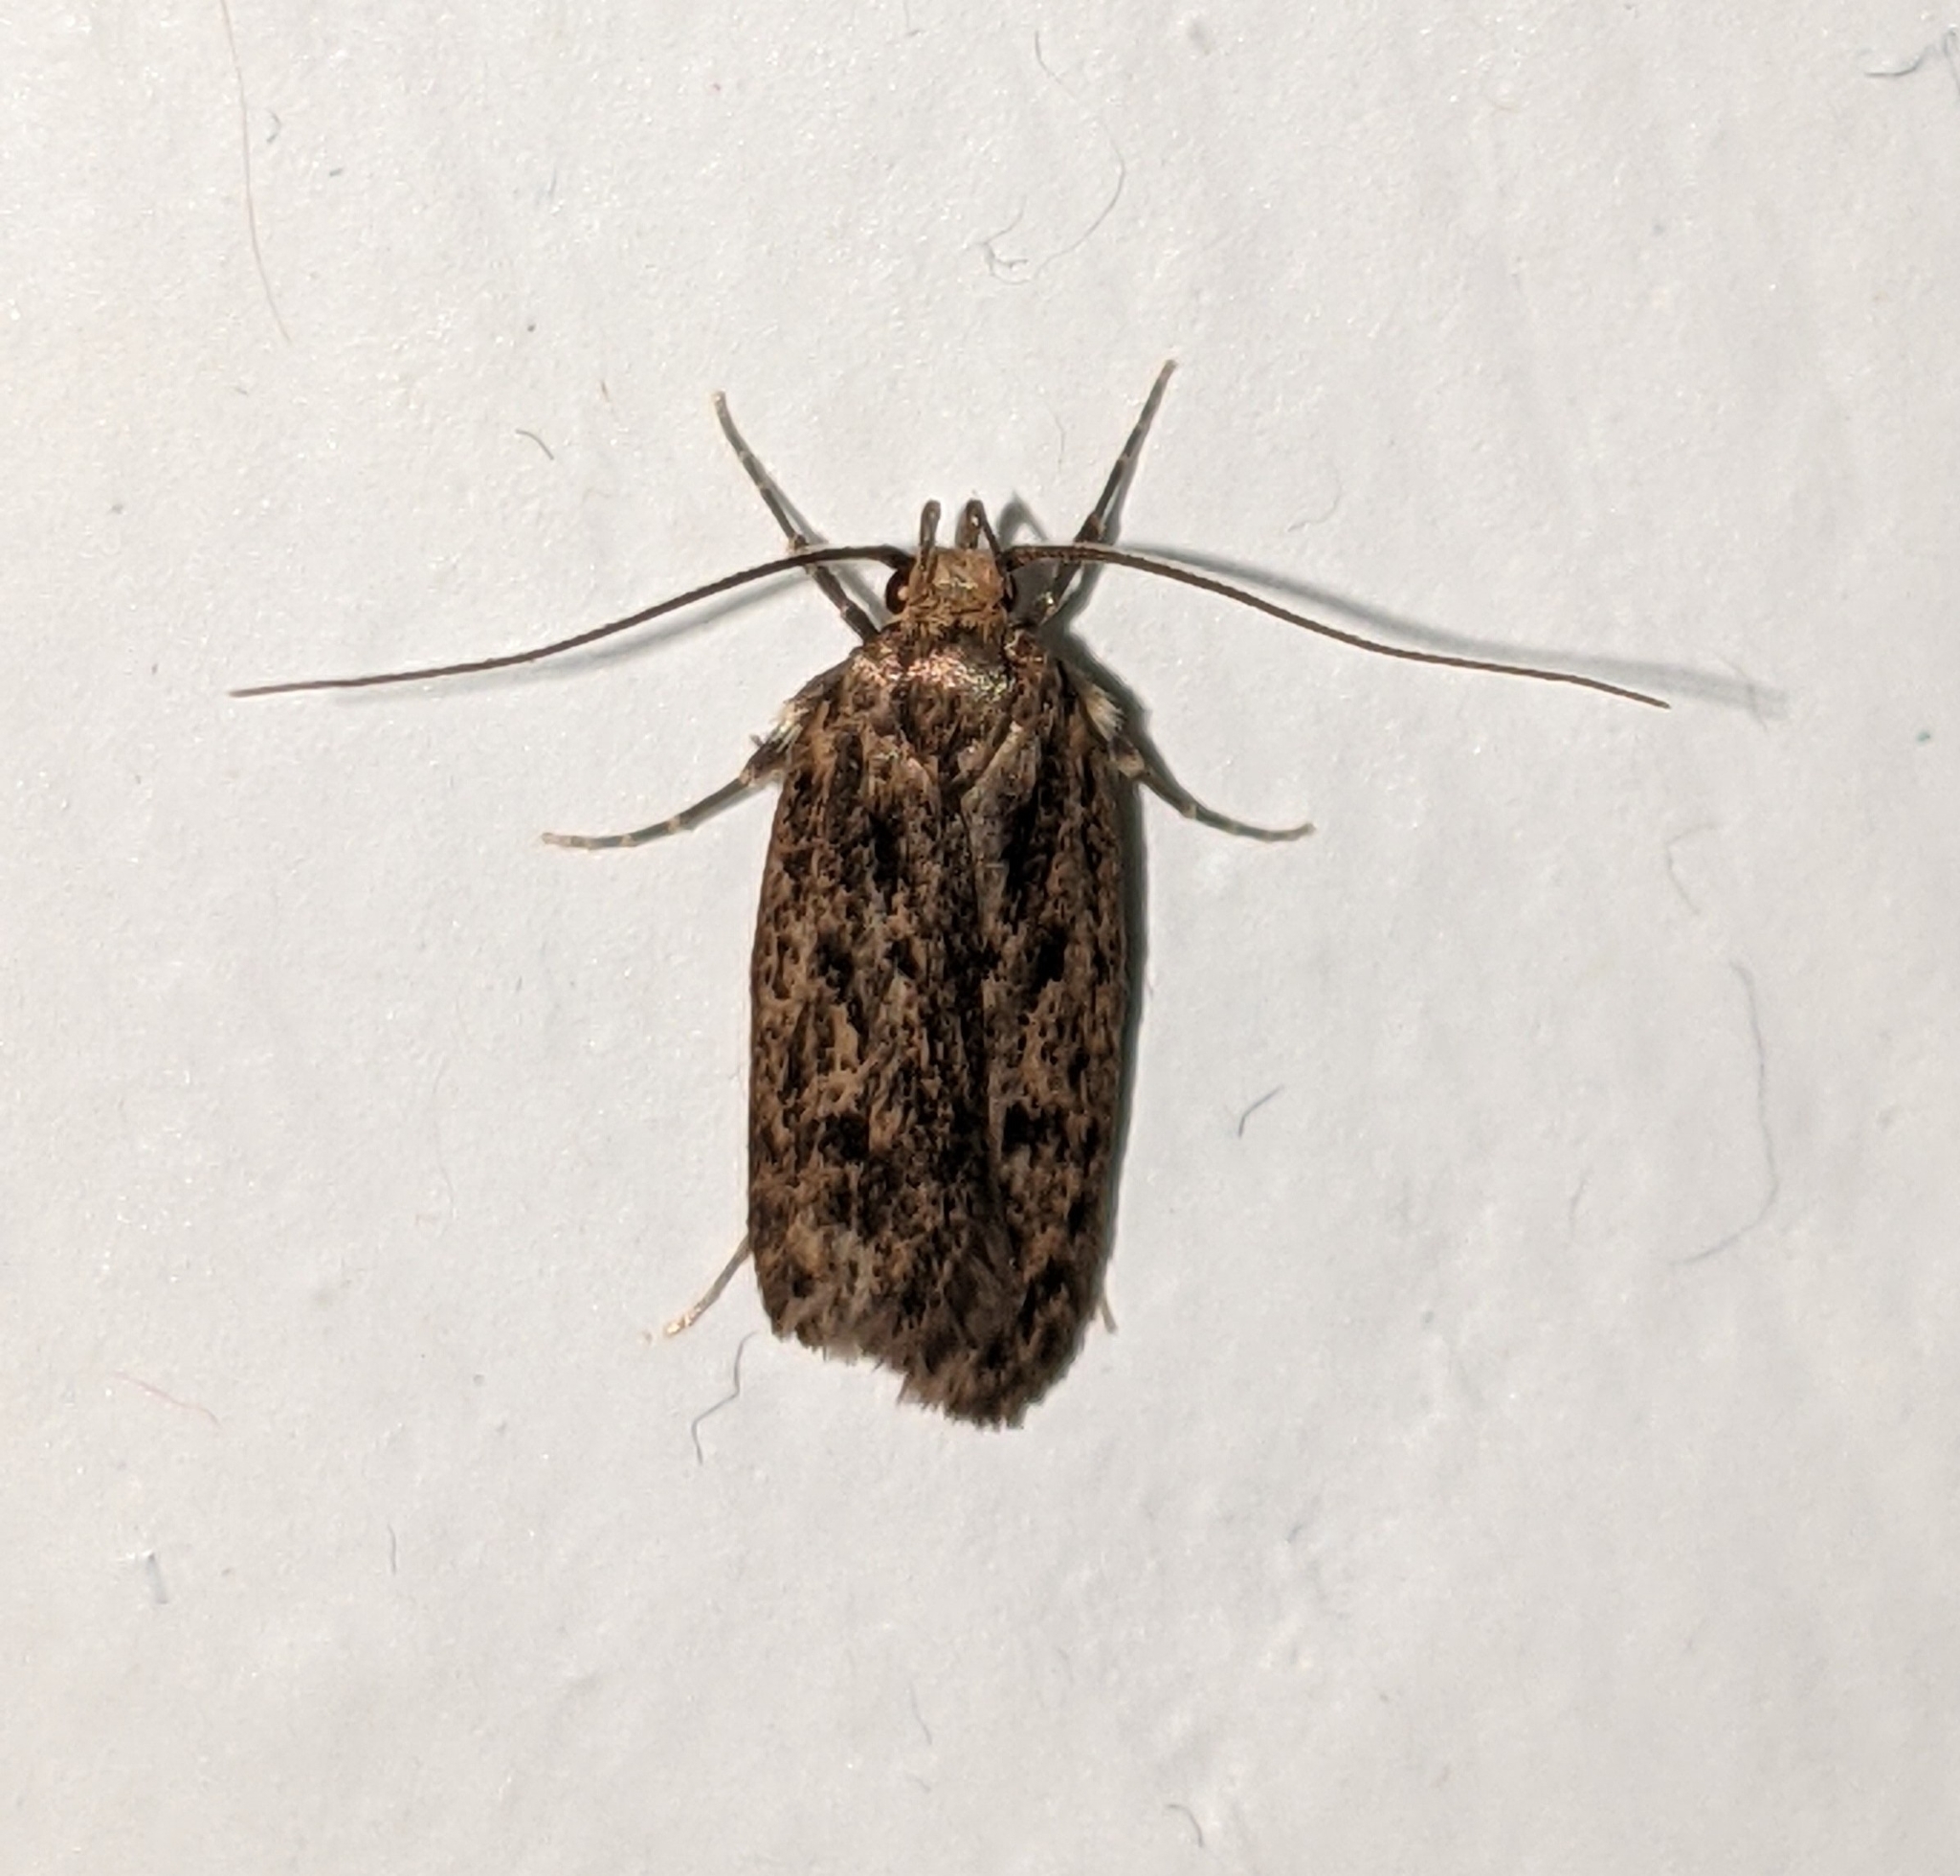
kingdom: Animalia
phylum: Arthropoda
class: Insecta
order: Lepidoptera
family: Oecophoridae
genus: Hofmannophila
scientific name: Hofmannophila pseudospretella
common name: Brown house moth
